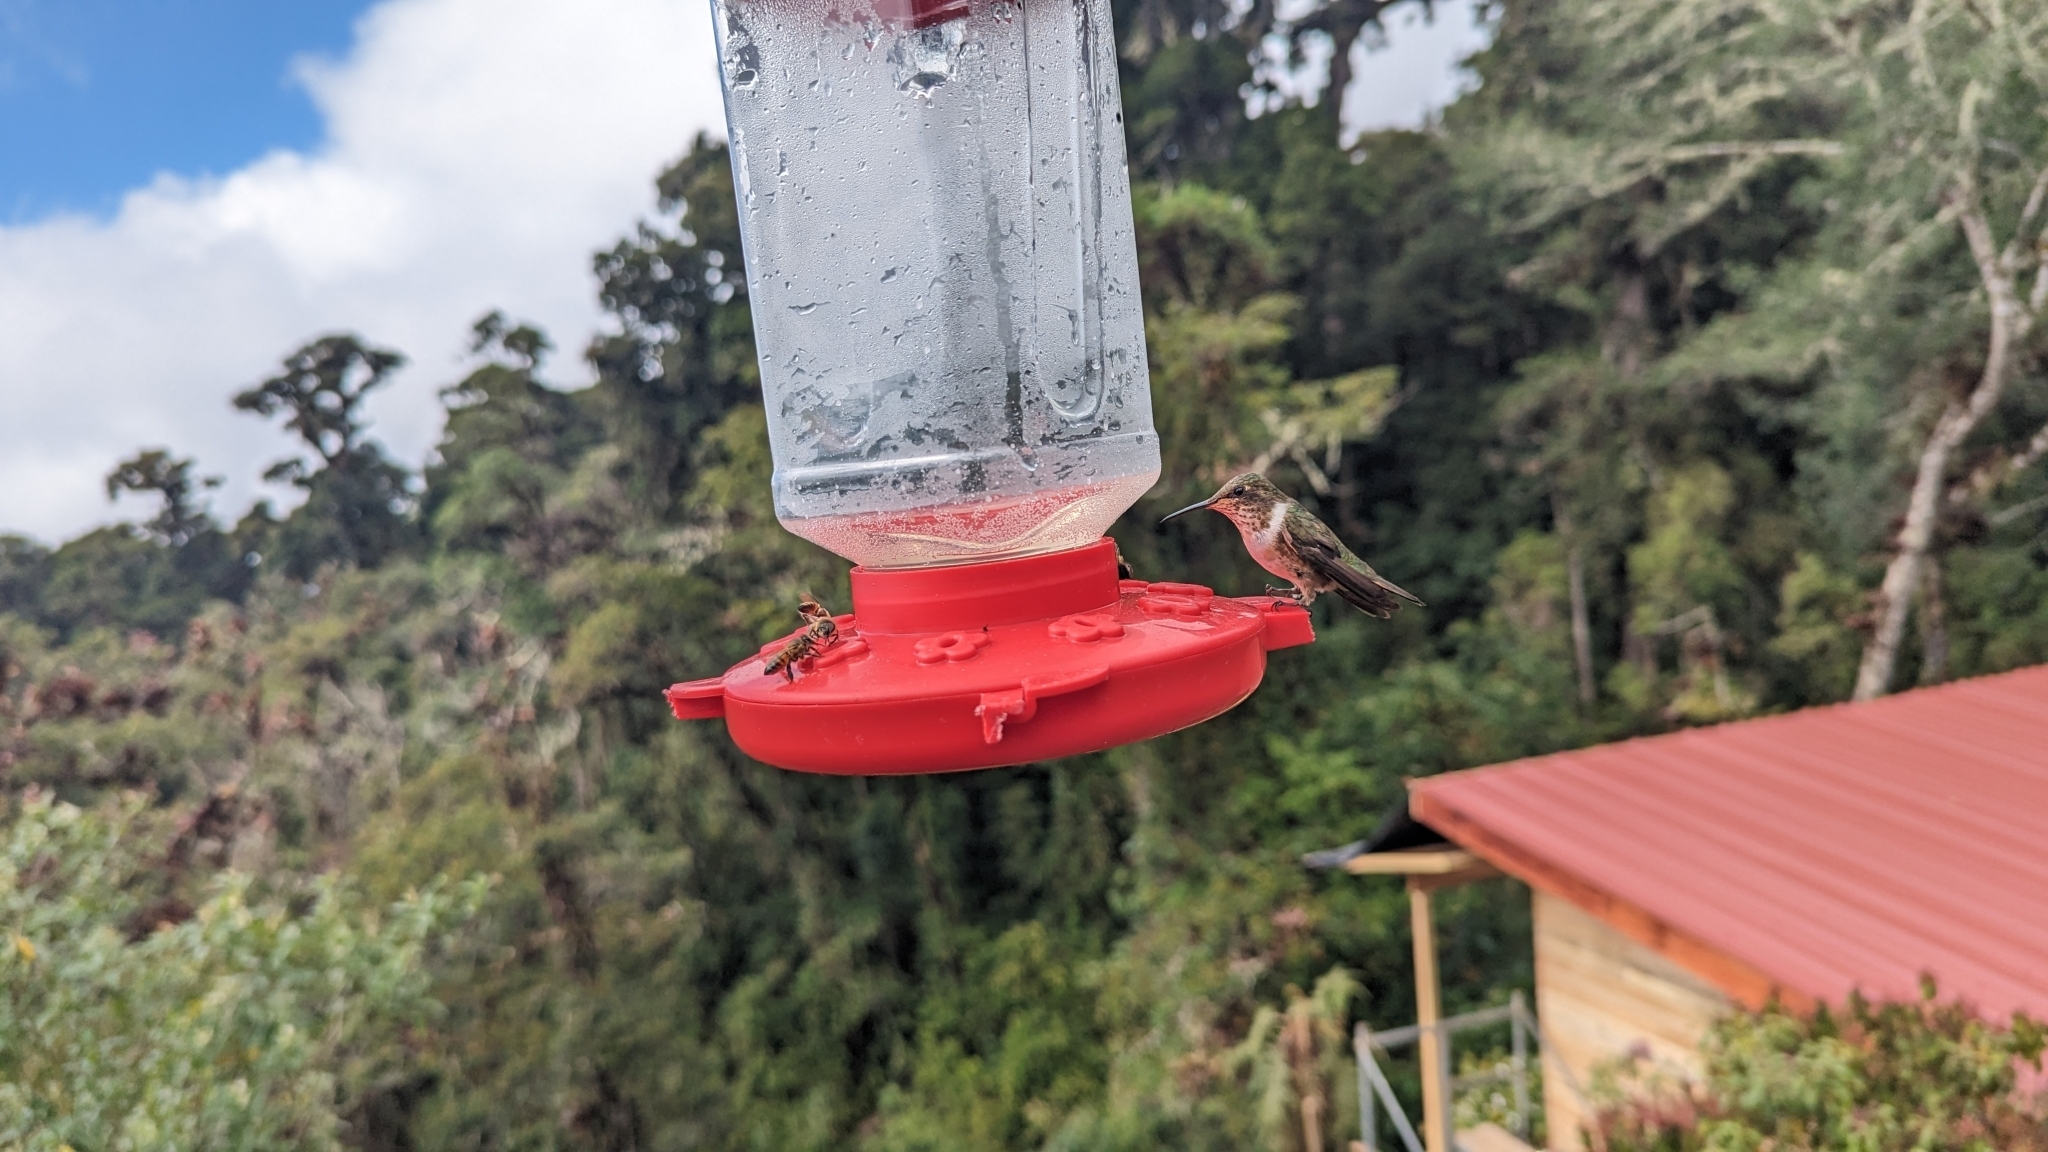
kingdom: Animalia
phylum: Chordata
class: Aves
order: Apodiformes
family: Trochilidae
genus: Selasphorus
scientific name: Selasphorus flammula
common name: Volcano hummingbird
